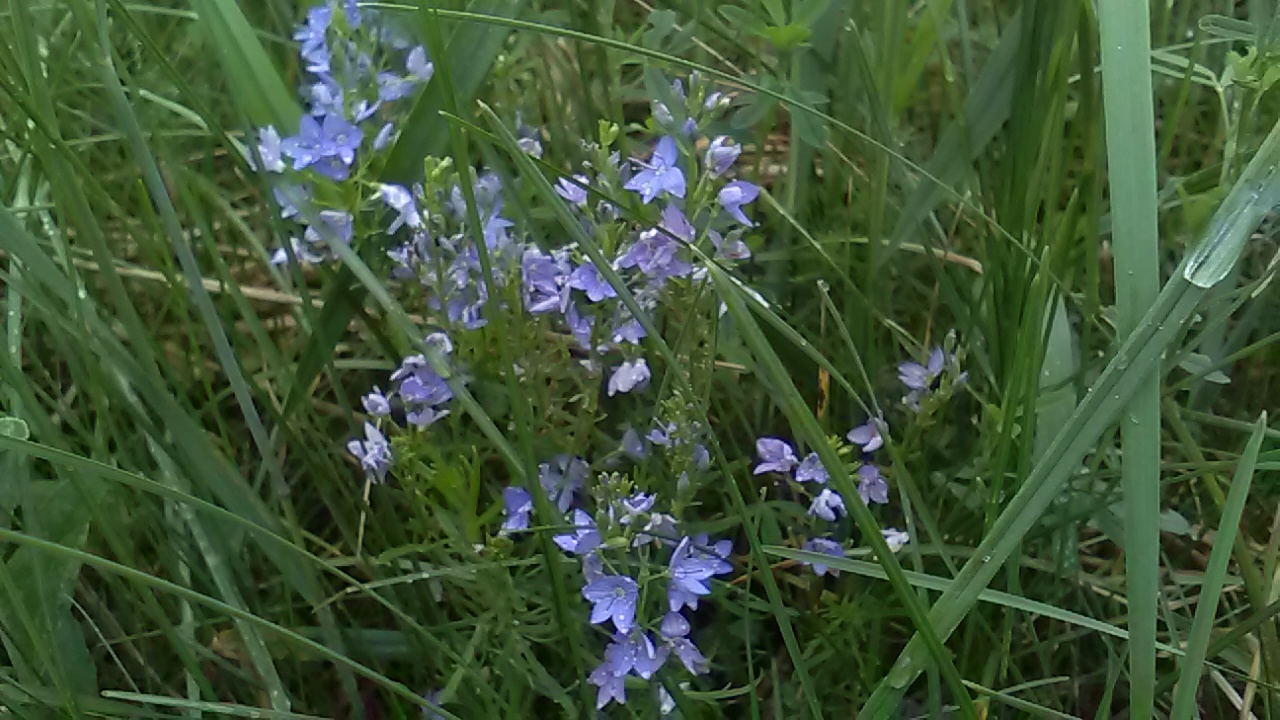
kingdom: Plantae
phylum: Tracheophyta
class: Magnoliopsida
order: Lamiales
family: Plantaginaceae
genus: Veronica
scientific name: Veronica austriaca
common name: Large speedwell
